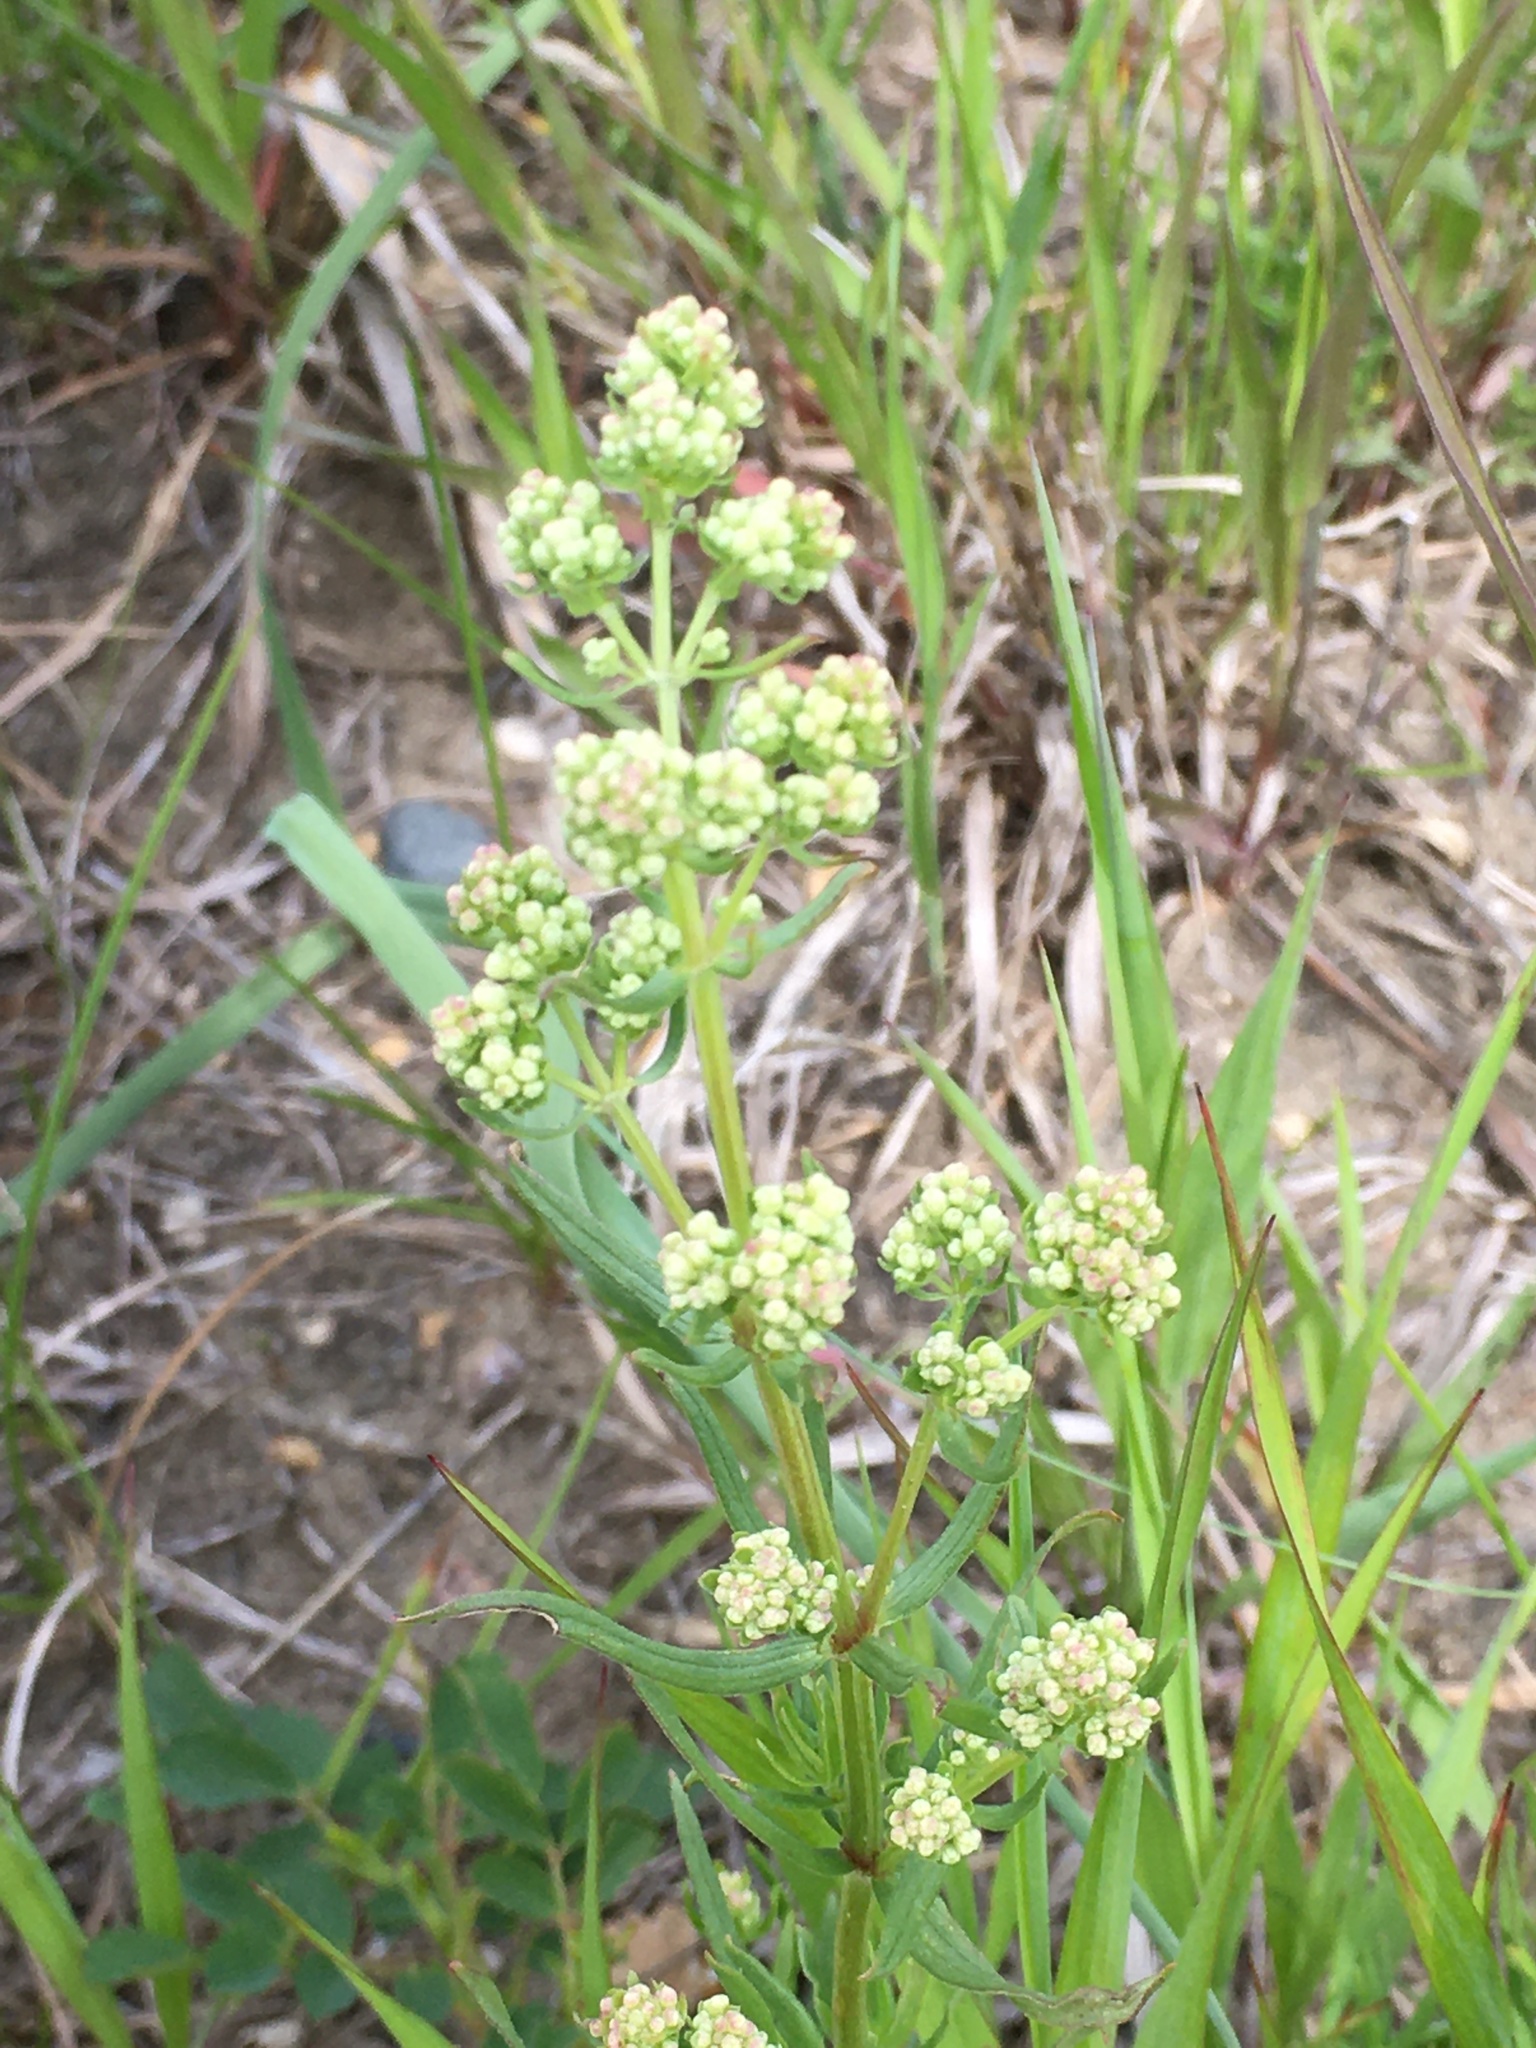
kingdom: Plantae
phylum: Tracheophyta
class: Magnoliopsida
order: Gentianales
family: Rubiaceae
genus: Galium
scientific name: Galium boreale
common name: Northern bedstraw
